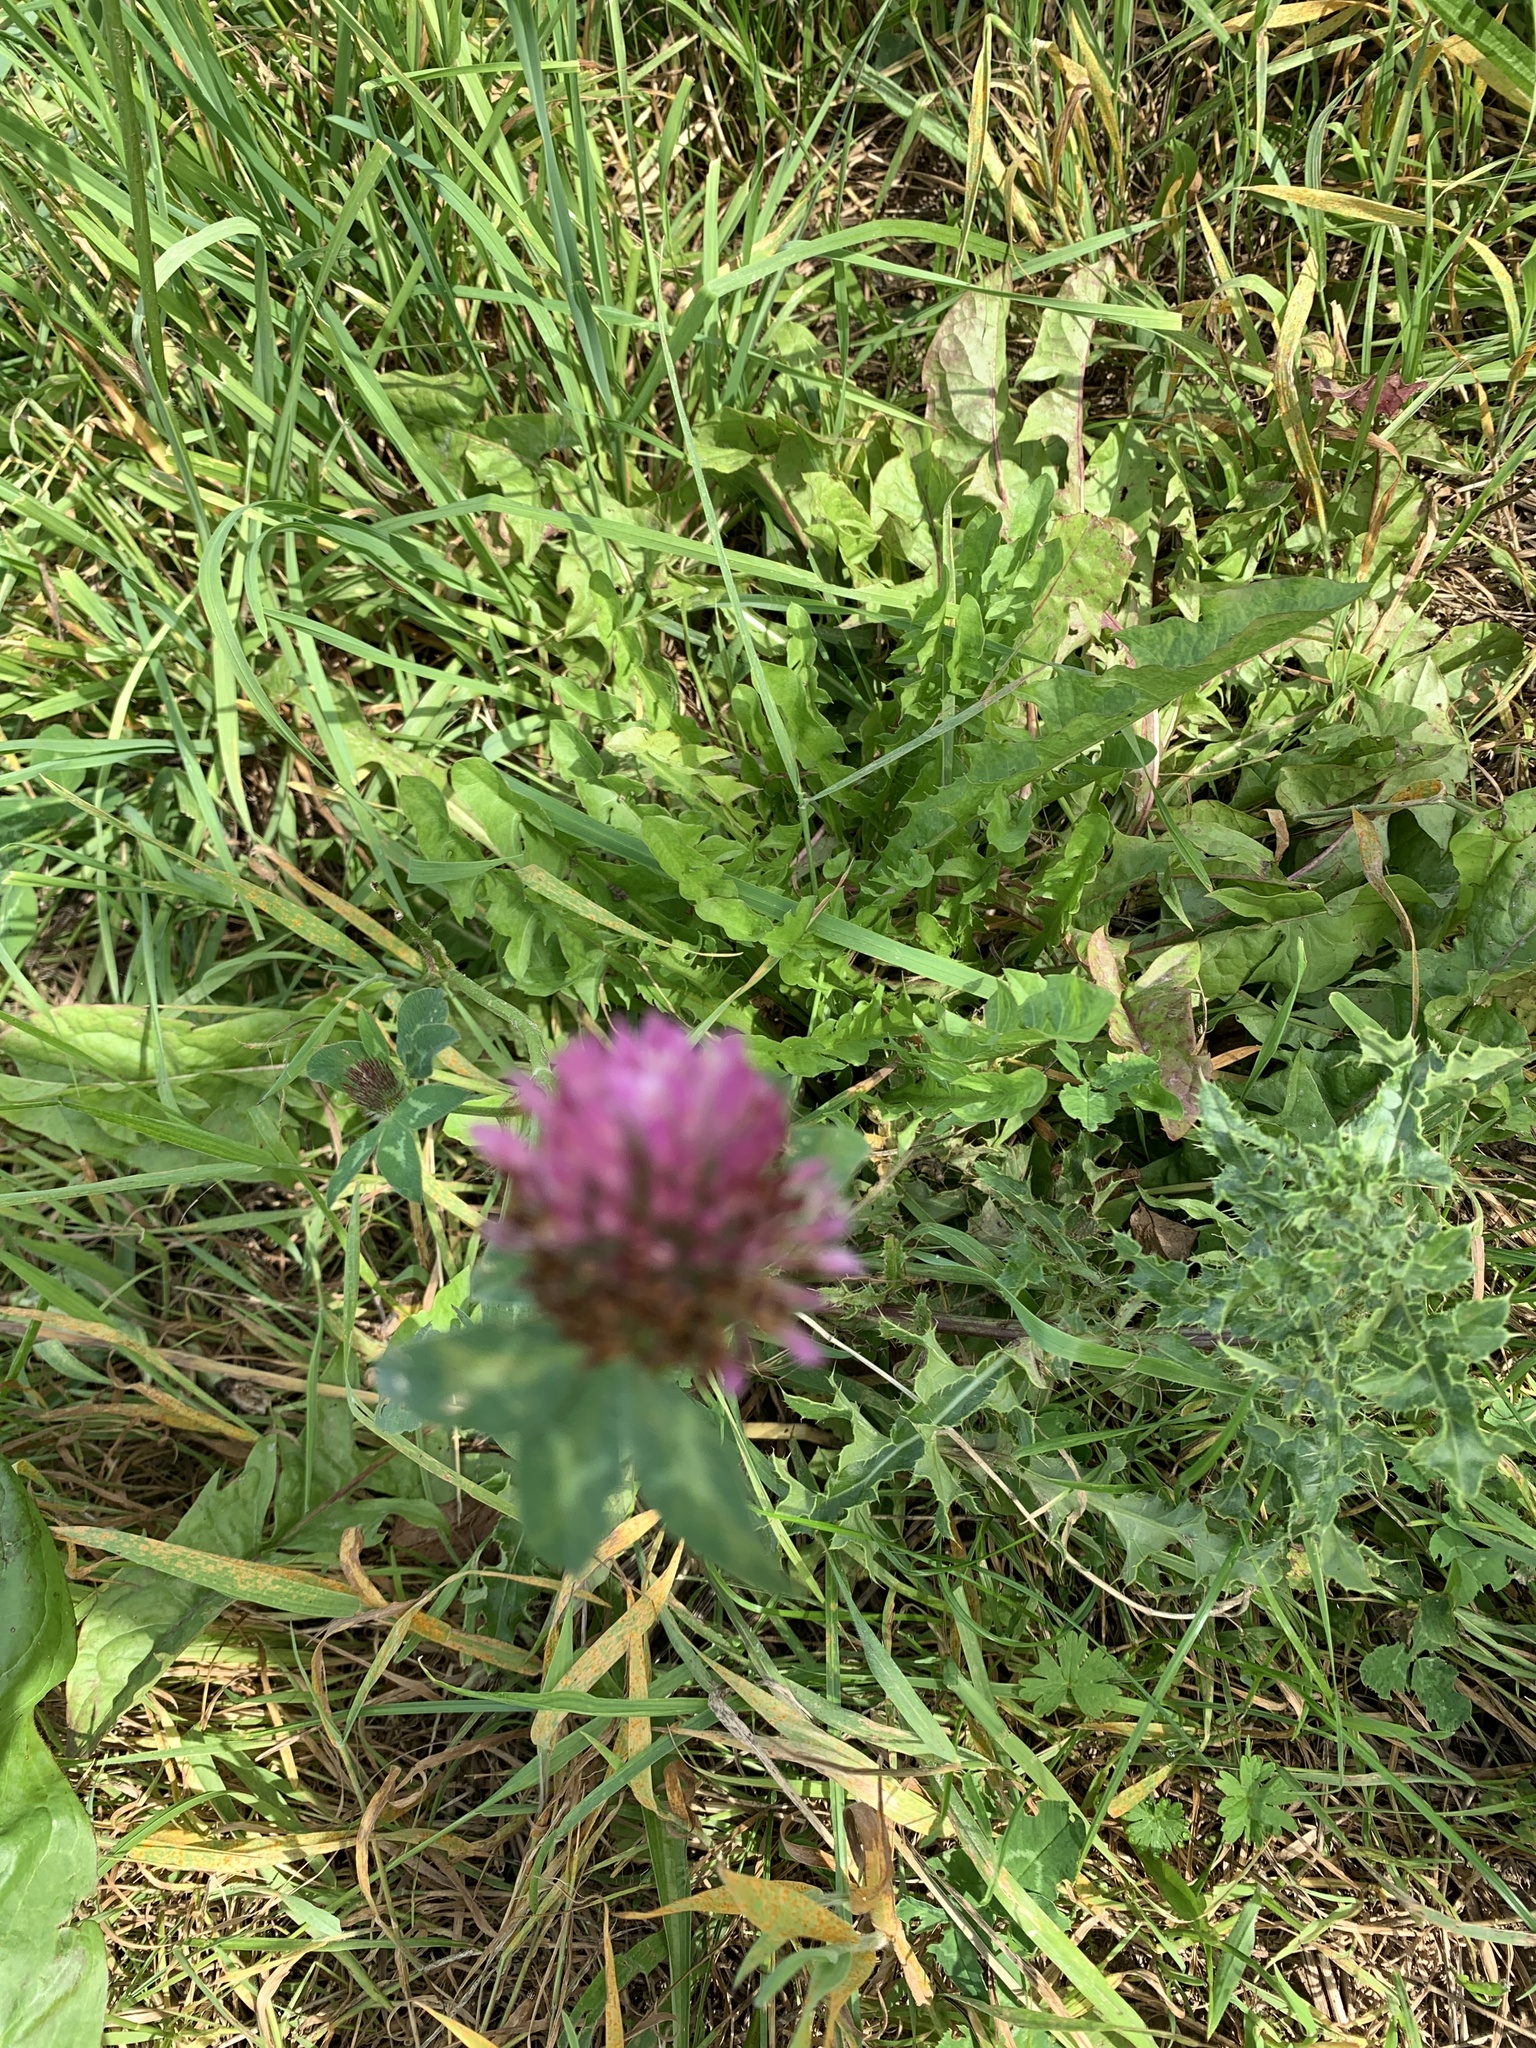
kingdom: Plantae
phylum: Tracheophyta
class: Magnoliopsida
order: Fabales
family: Fabaceae
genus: Trifolium
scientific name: Trifolium pratense
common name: Red clover
